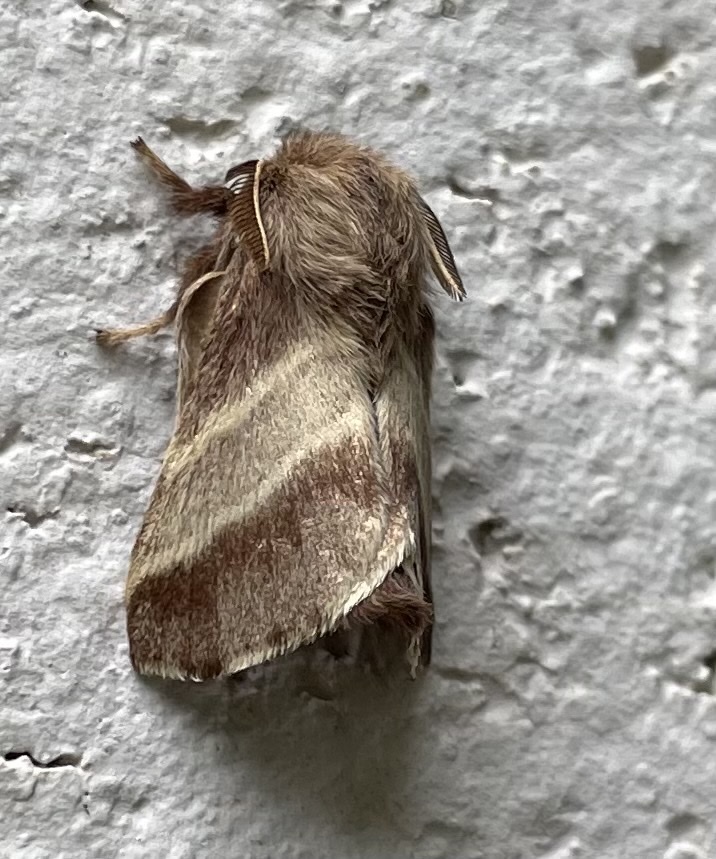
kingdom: Animalia
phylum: Arthropoda
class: Insecta
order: Lepidoptera
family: Lasiocampidae
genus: Malacosoma
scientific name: Malacosoma americana
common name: Eastern tent caterpillar moth
